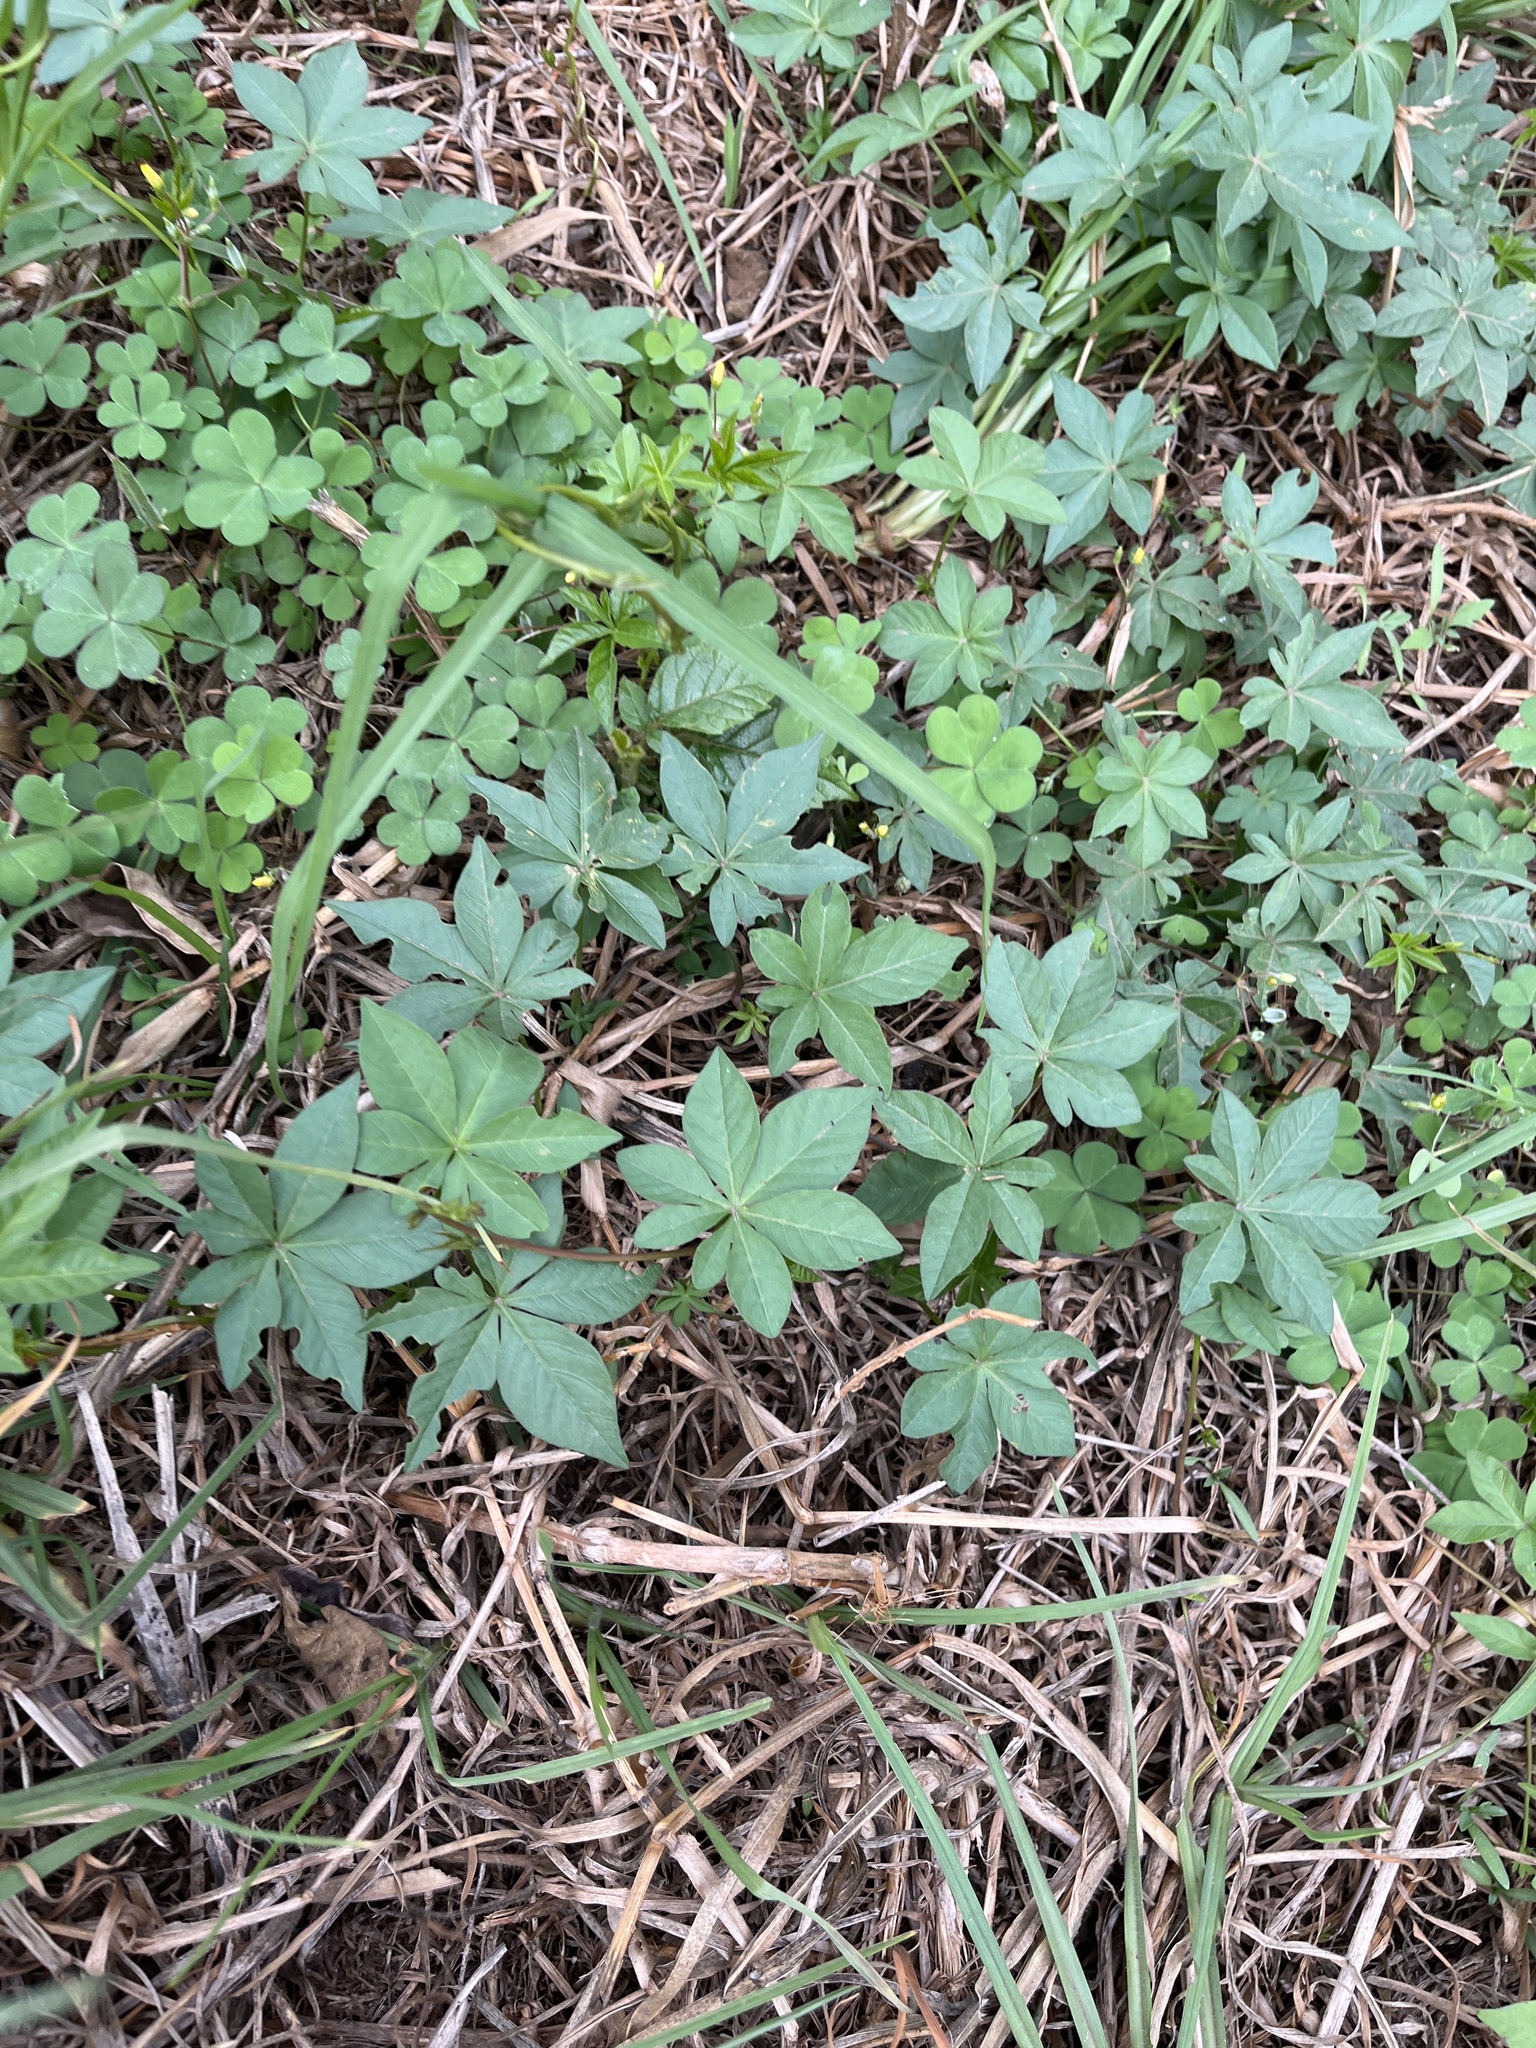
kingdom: Plantae
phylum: Tracheophyta
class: Magnoliopsida
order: Solanales
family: Convolvulaceae
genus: Ipomoea
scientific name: Ipomoea cairica
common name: Mile a minute vine
